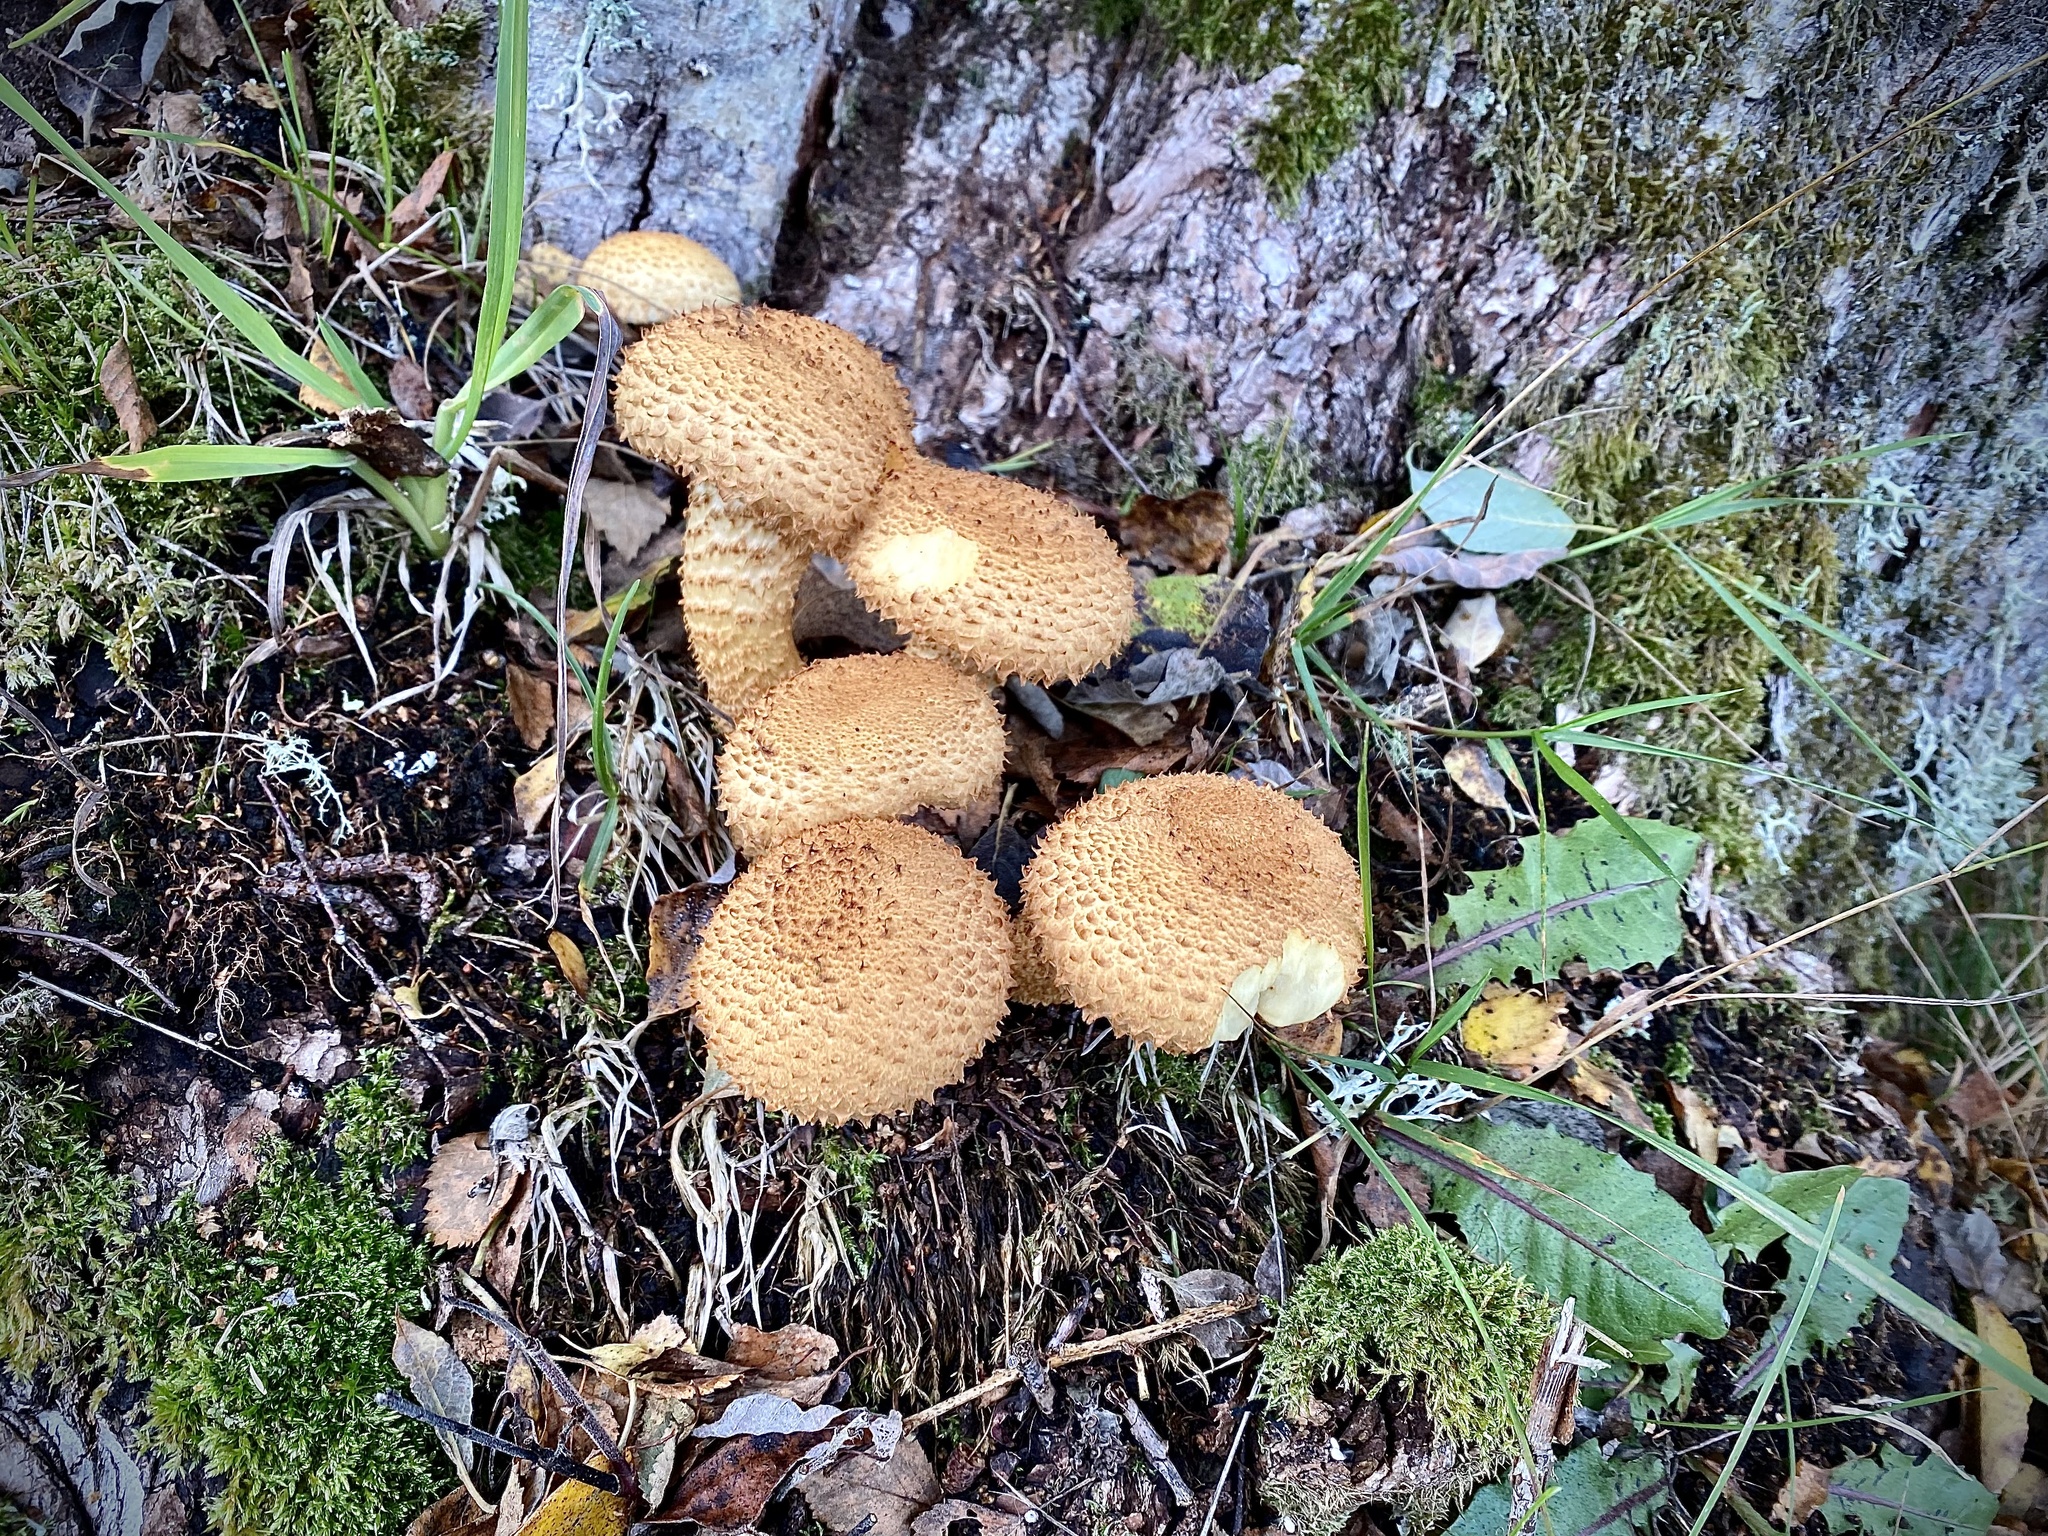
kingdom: Fungi
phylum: Basidiomycota
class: Agaricomycetes
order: Agaricales
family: Strophariaceae
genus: Pholiota
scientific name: Pholiota squarrosa
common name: Shaggy pholiota
